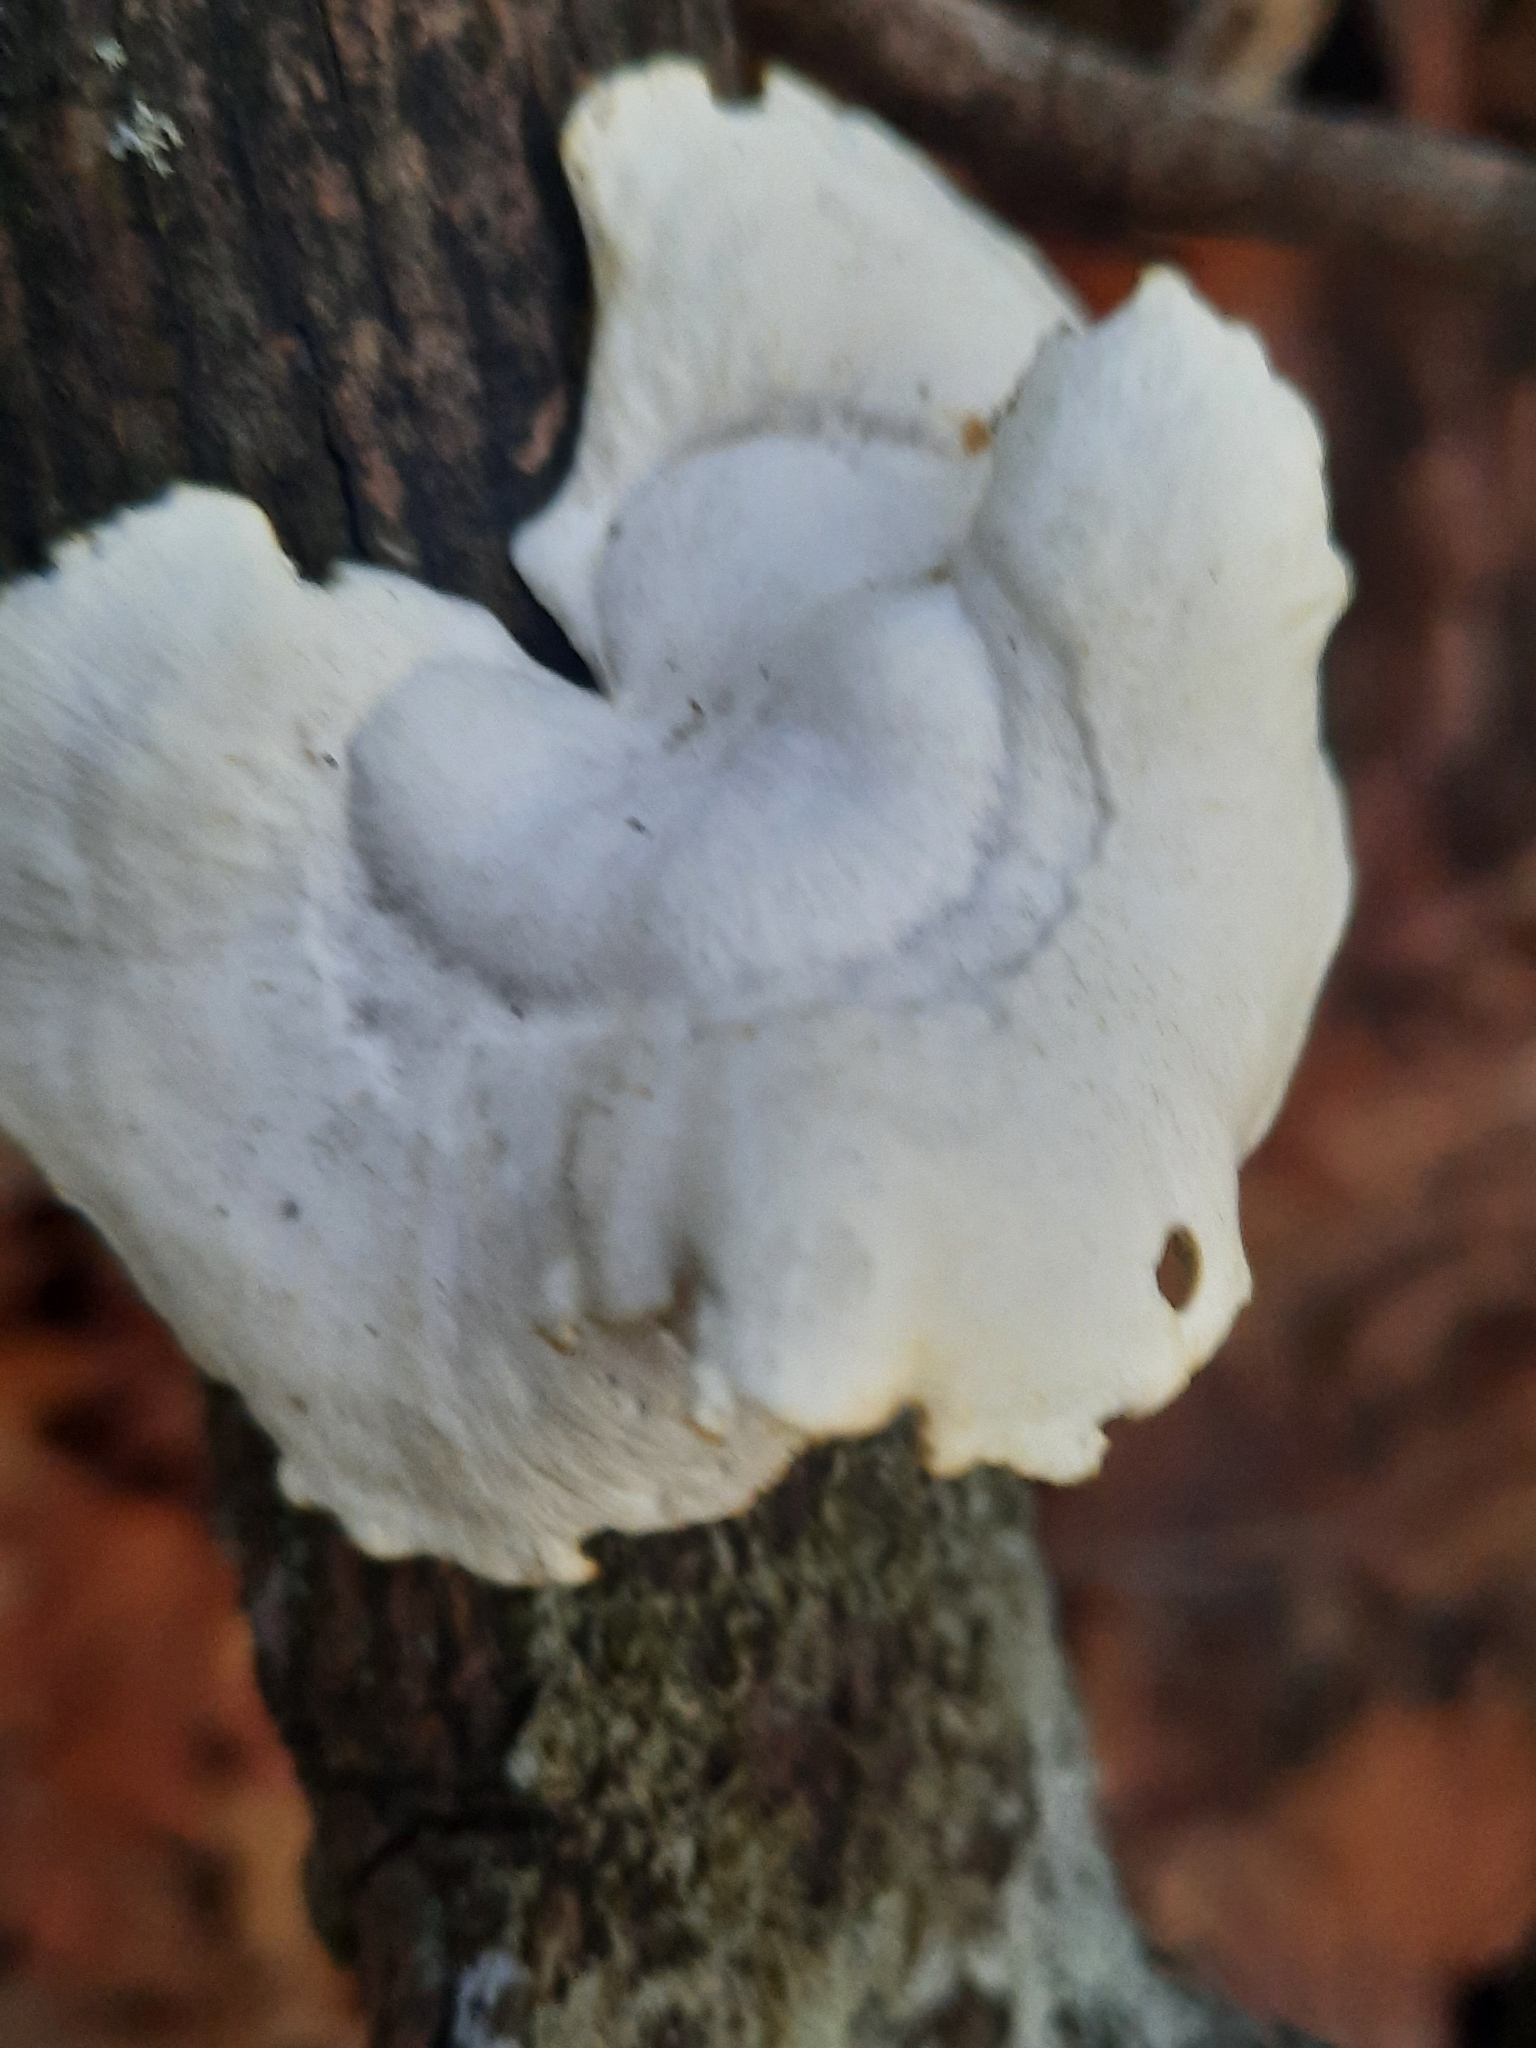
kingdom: Fungi
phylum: Basidiomycota
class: Agaricomycetes
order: Polyporales
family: Polyporaceae
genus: Neofavolus
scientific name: Neofavolus
